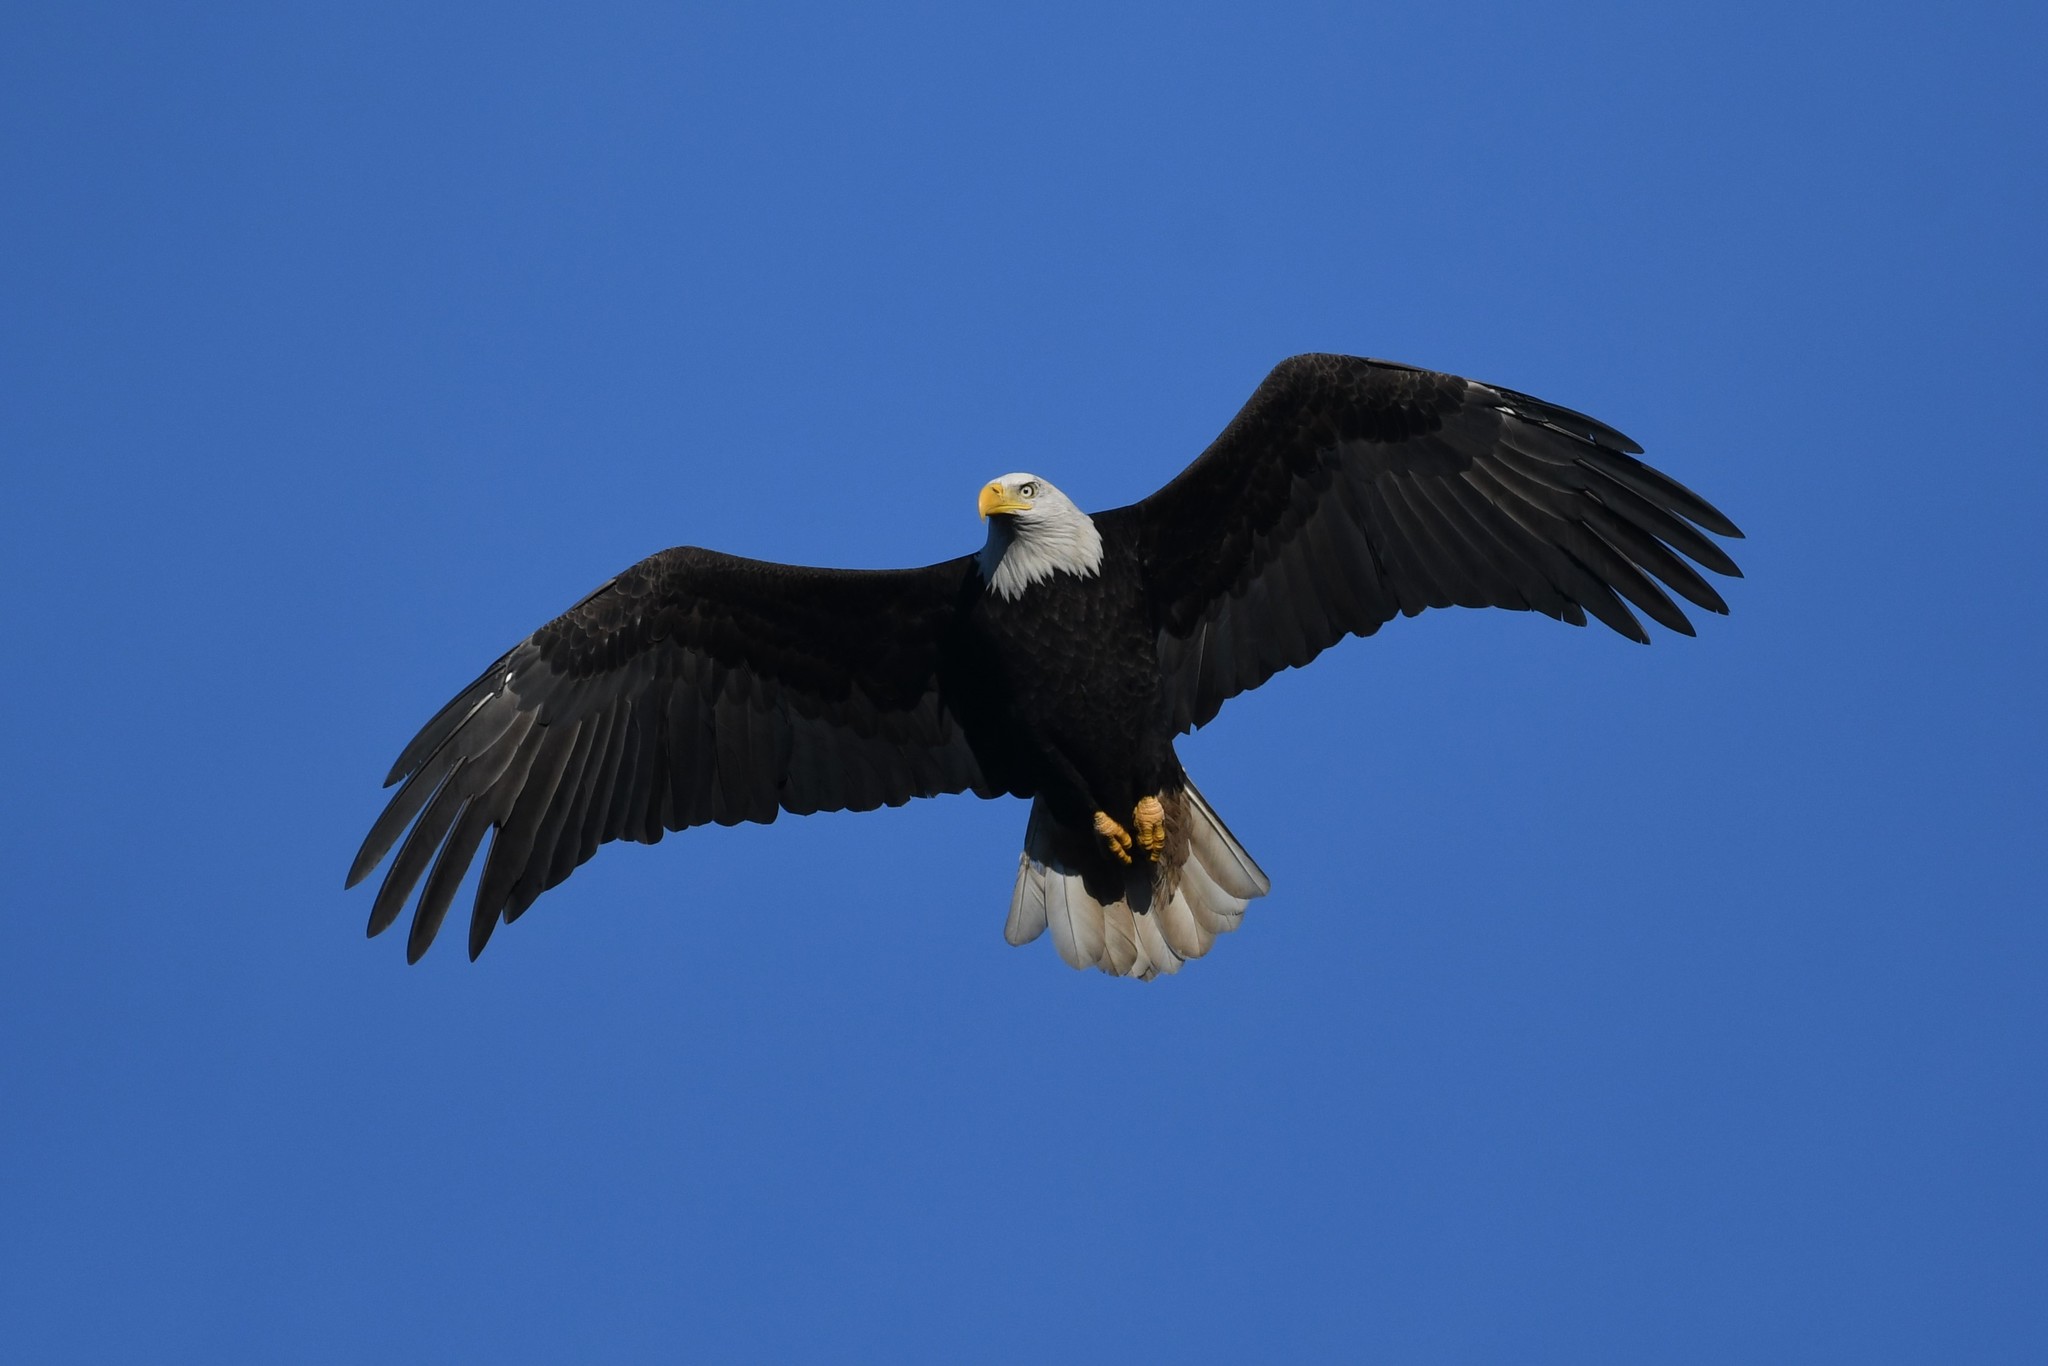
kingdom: Animalia
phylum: Chordata
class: Aves
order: Accipitriformes
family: Accipitridae
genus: Haliaeetus
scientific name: Haliaeetus leucocephalus
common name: Bald eagle
